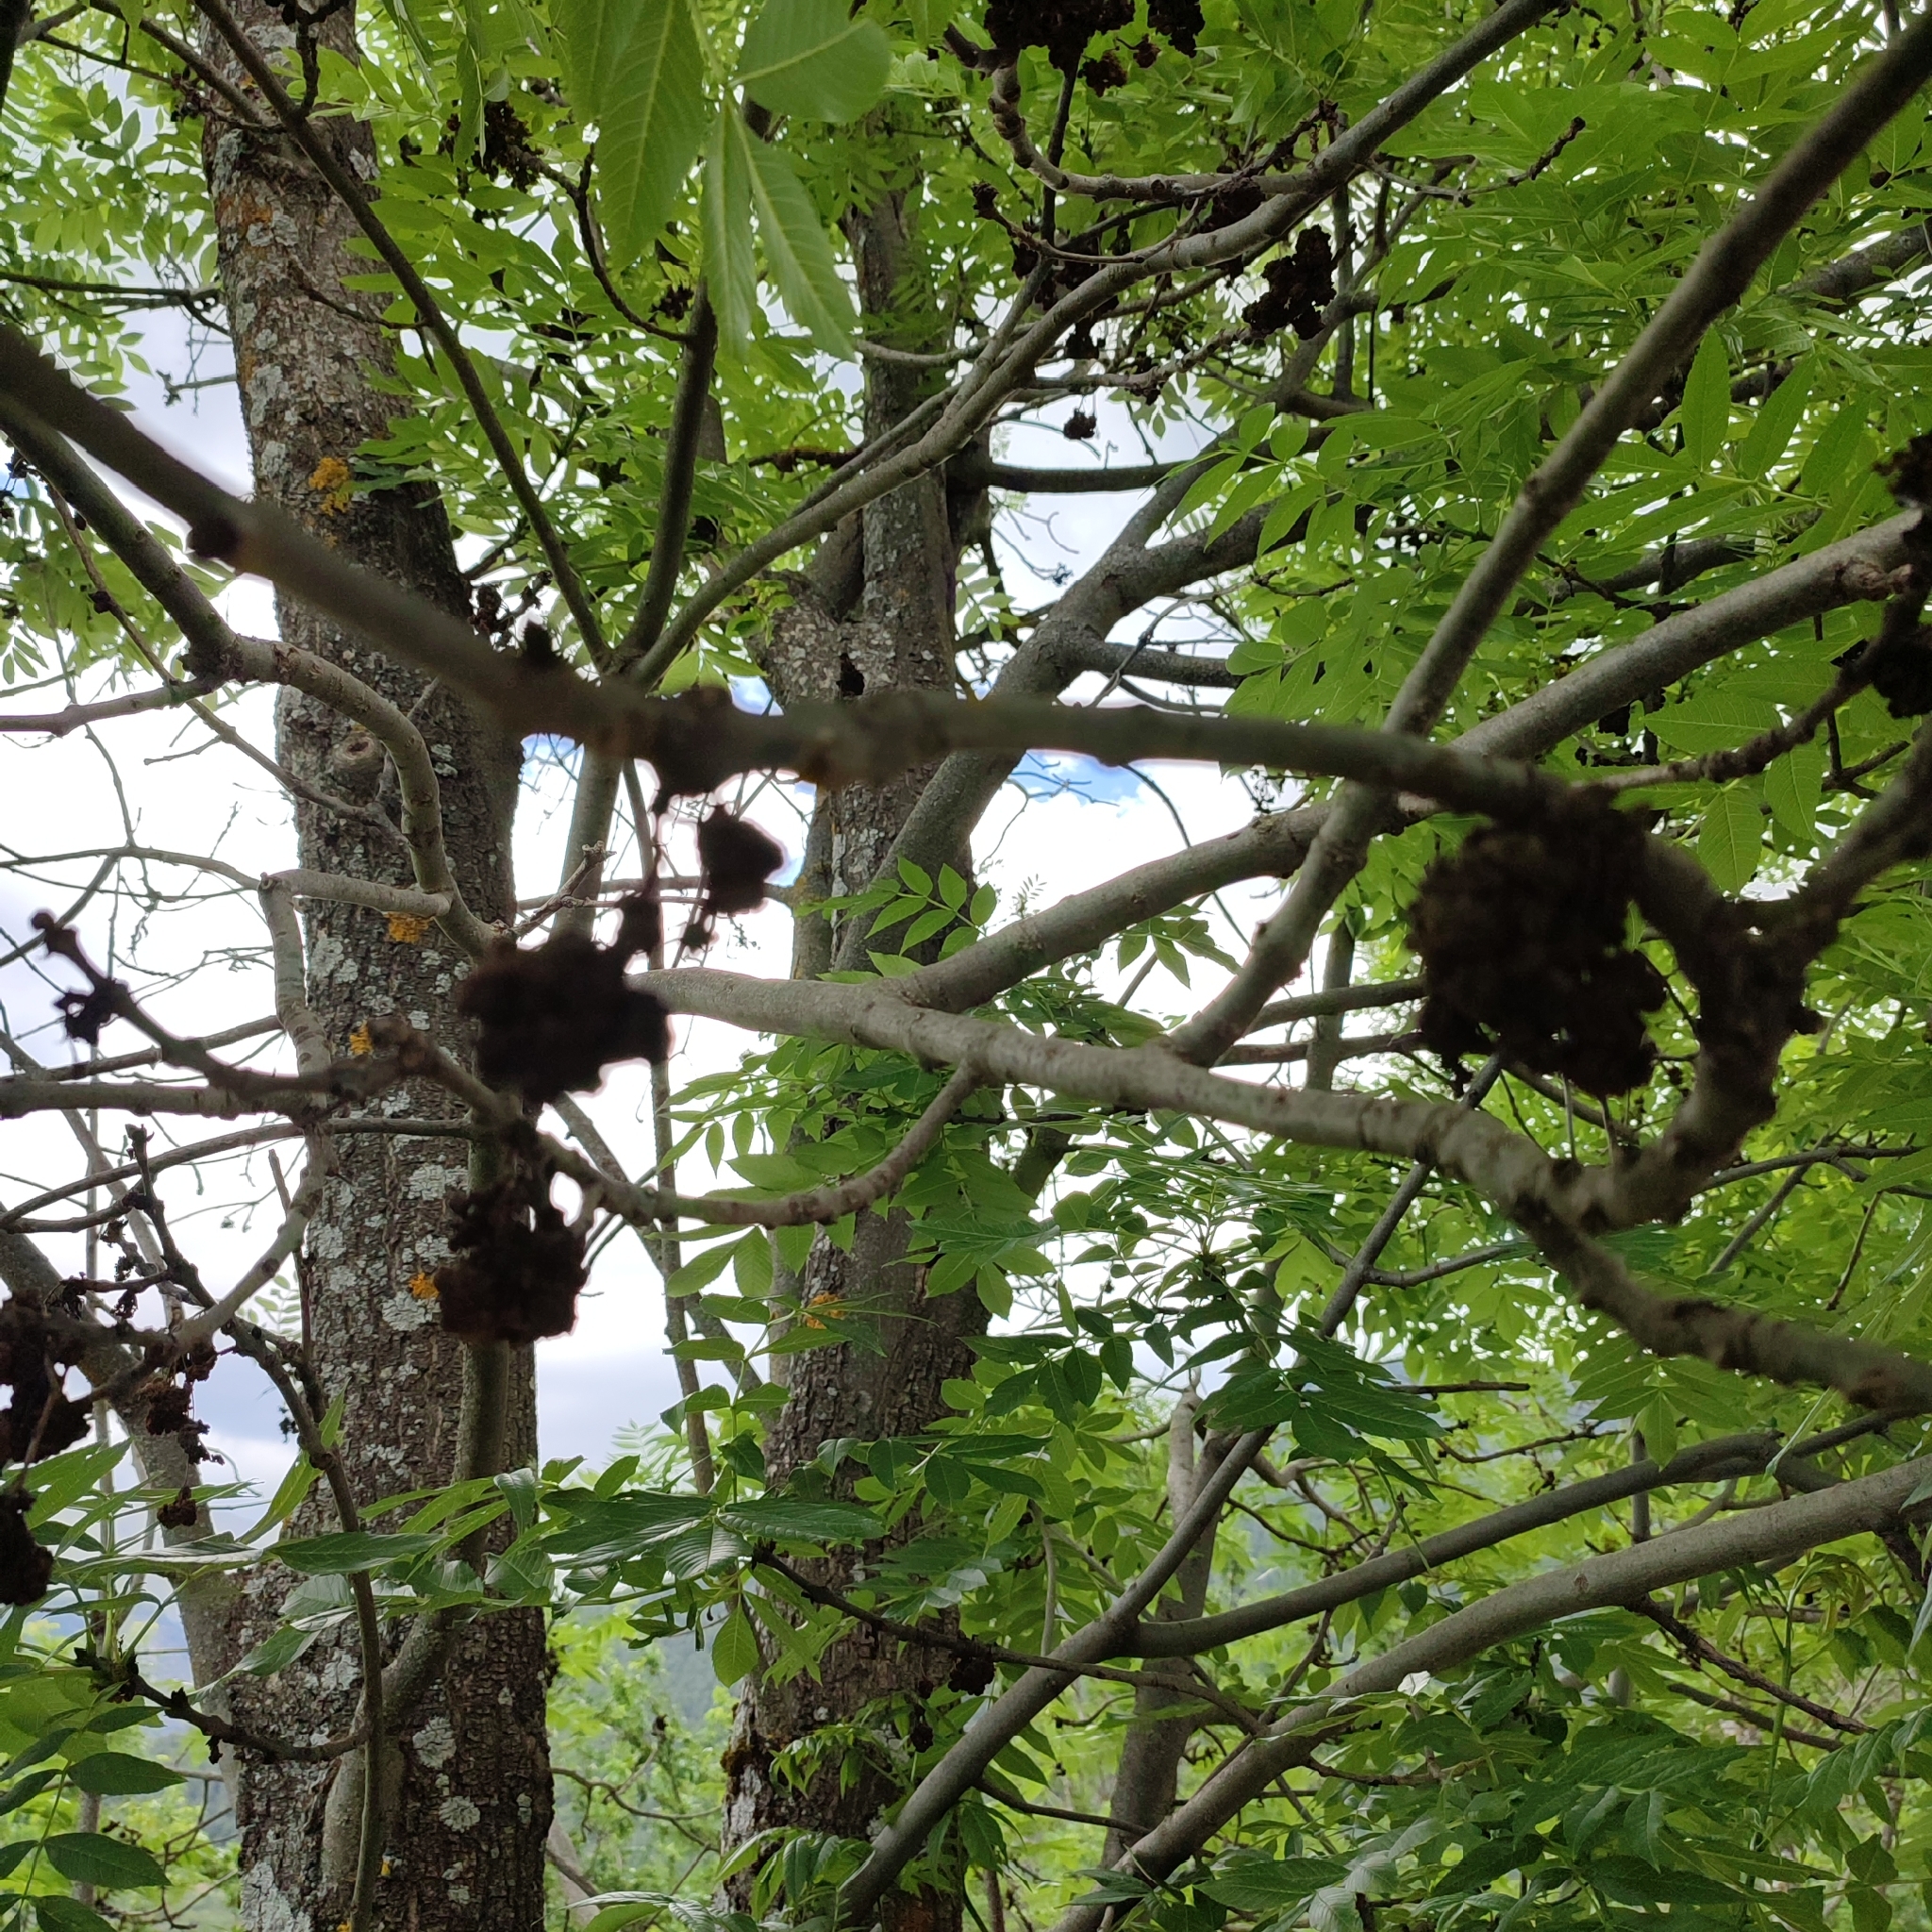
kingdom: Animalia
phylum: Arthropoda
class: Arachnida
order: Trombidiformes
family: Eriophyidae
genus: Aceria
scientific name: Aceria fraxinivora
